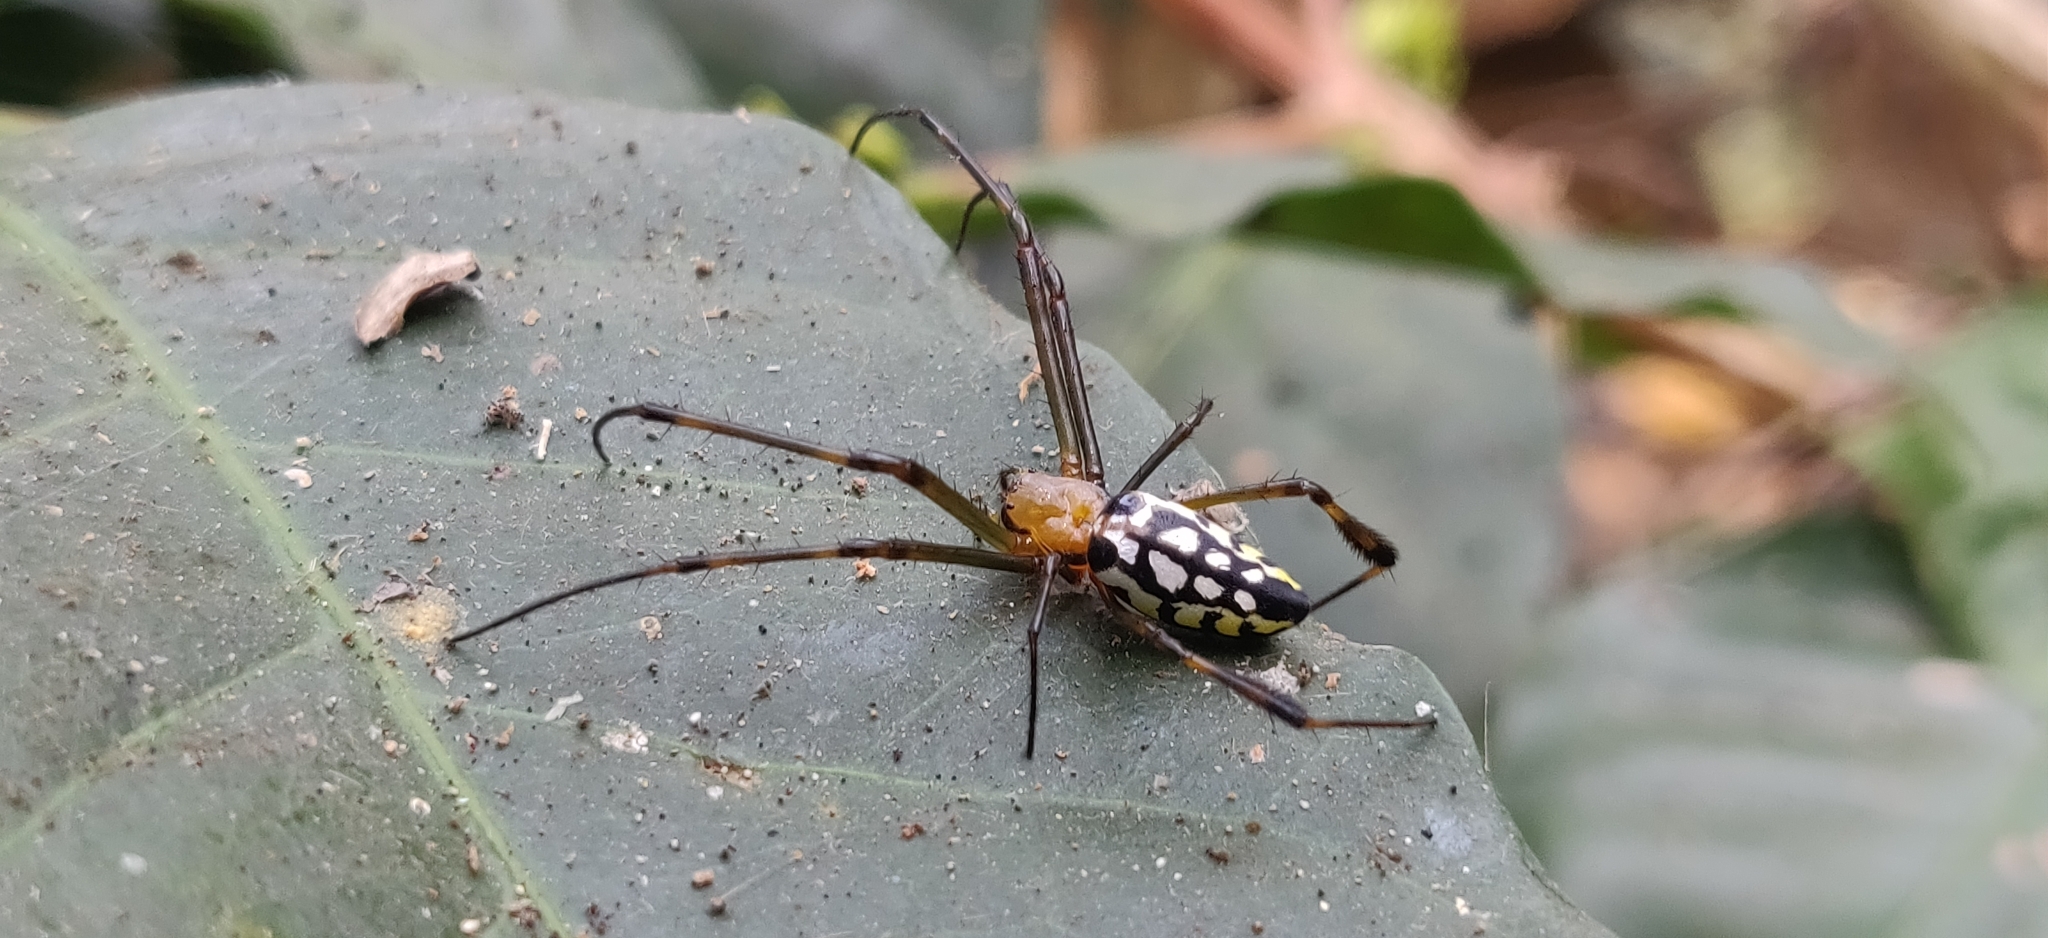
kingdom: Animalia
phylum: Arthropoda
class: Arachnida
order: Araneae
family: Tetragnathidae
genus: Leucauge
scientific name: Leucauge tessellata
